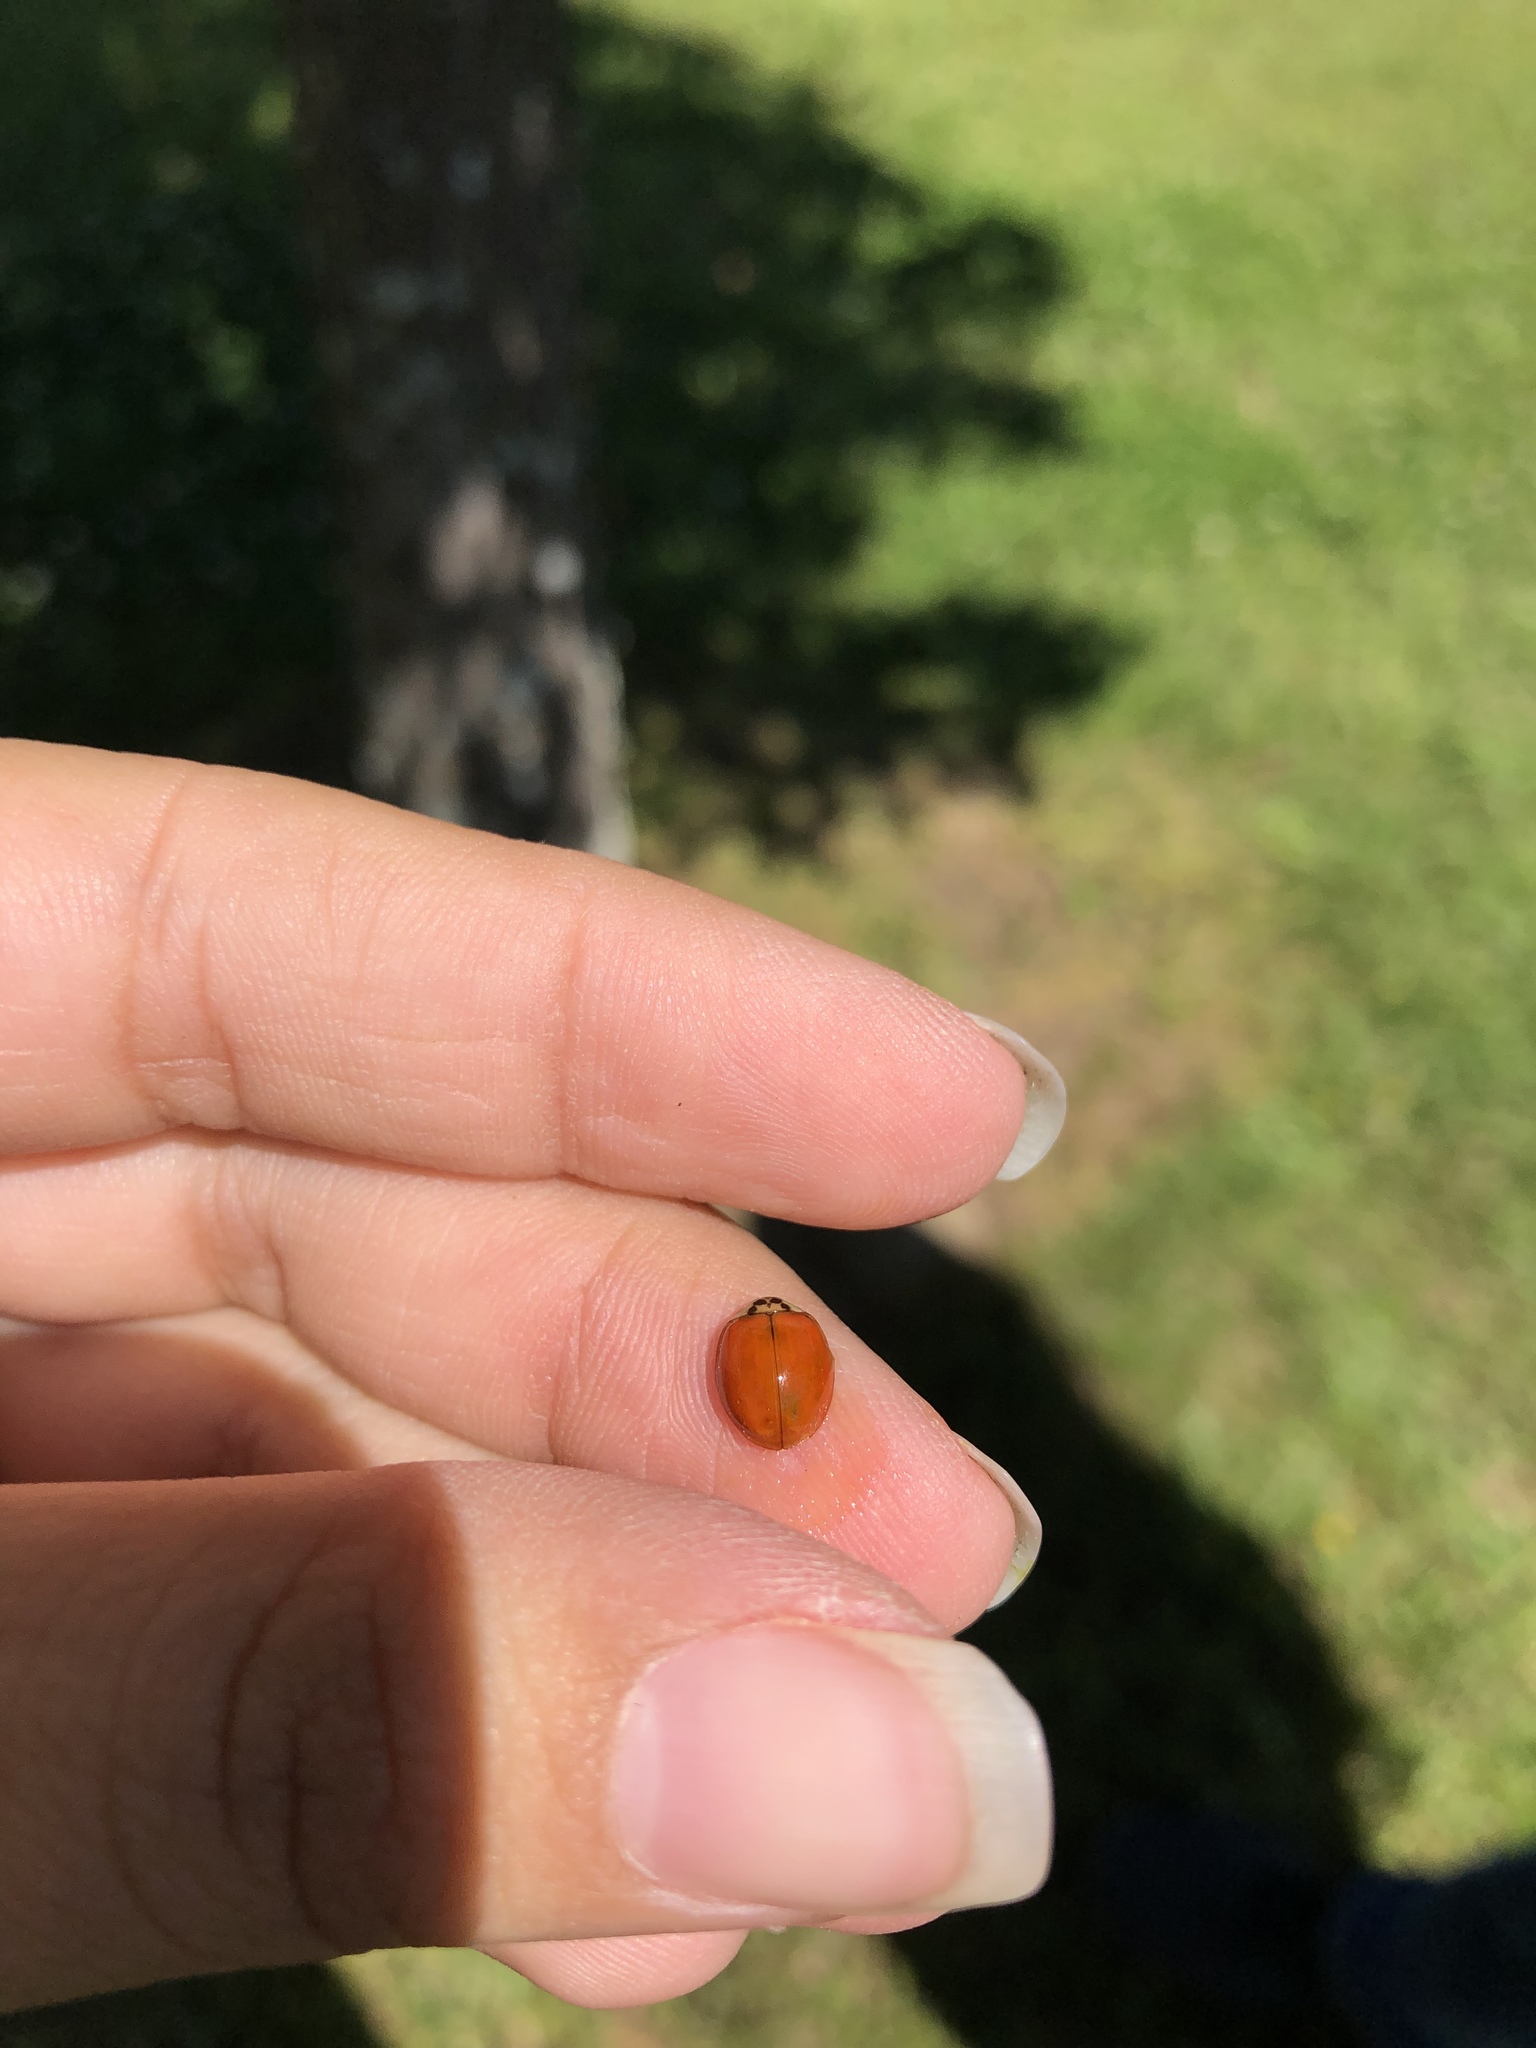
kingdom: Animalia
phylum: Arthropoda
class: Insecta
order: Coleoptera
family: Coccinellidae
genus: Harmonia
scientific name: Harmonia axyridis
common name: Harlequin ladybird
